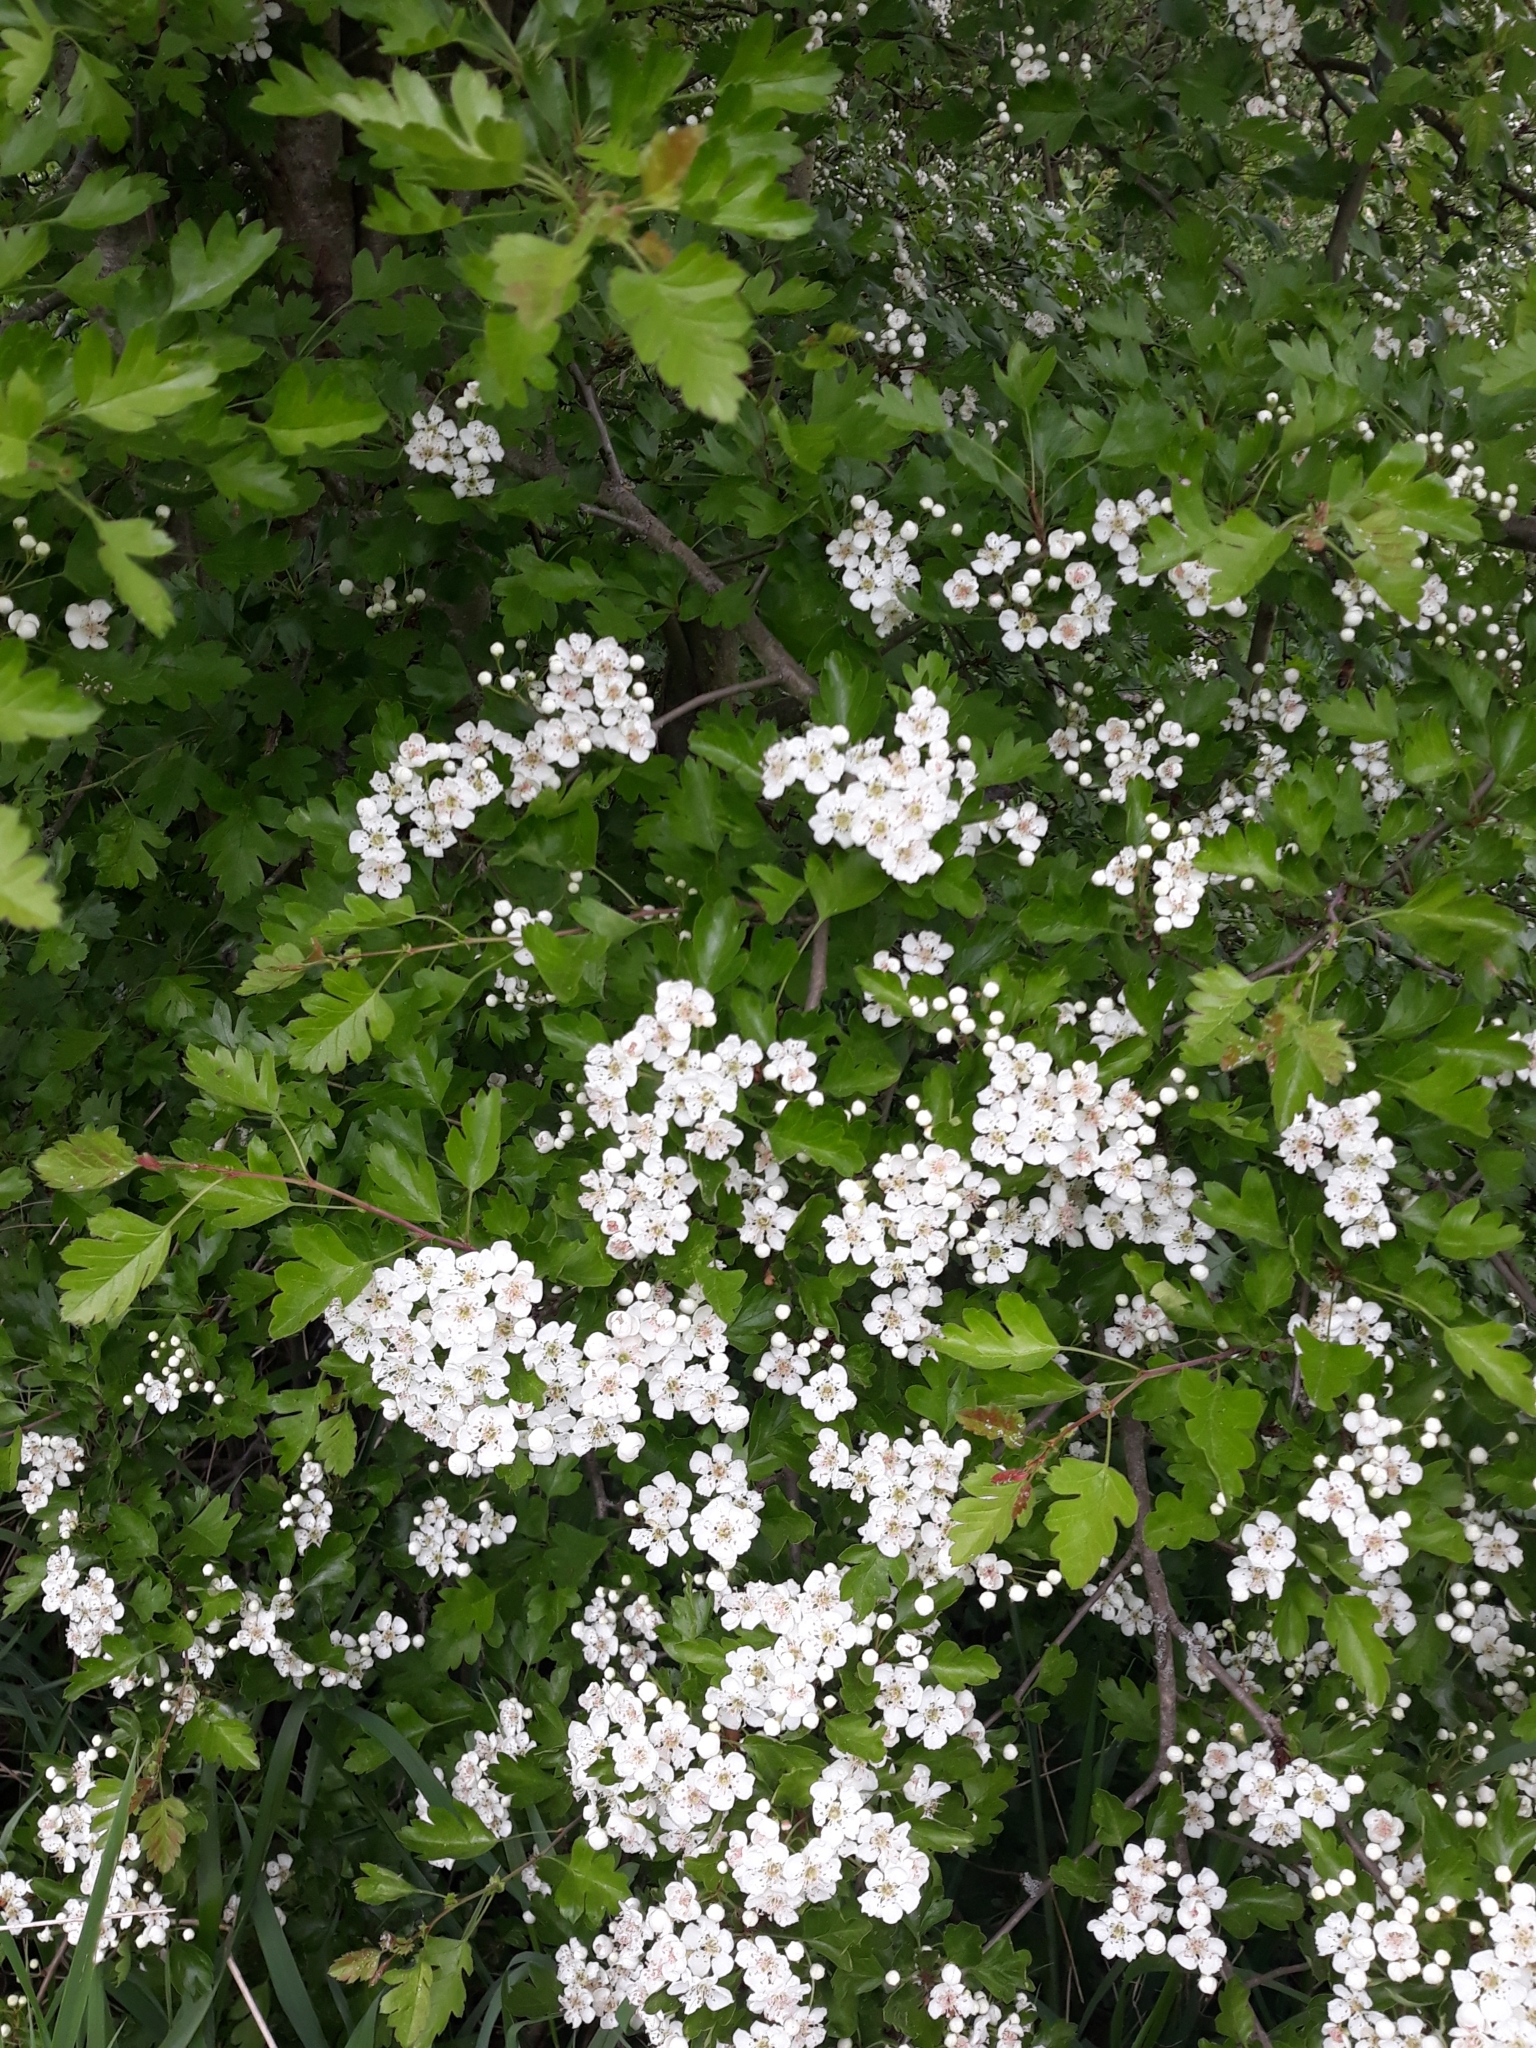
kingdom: Plantae
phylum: Tracheophyta
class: Magnoliopsida
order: Rosales
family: Rosaceae
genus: Crataegus
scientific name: Crataegus monogyna
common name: Hawthorn
